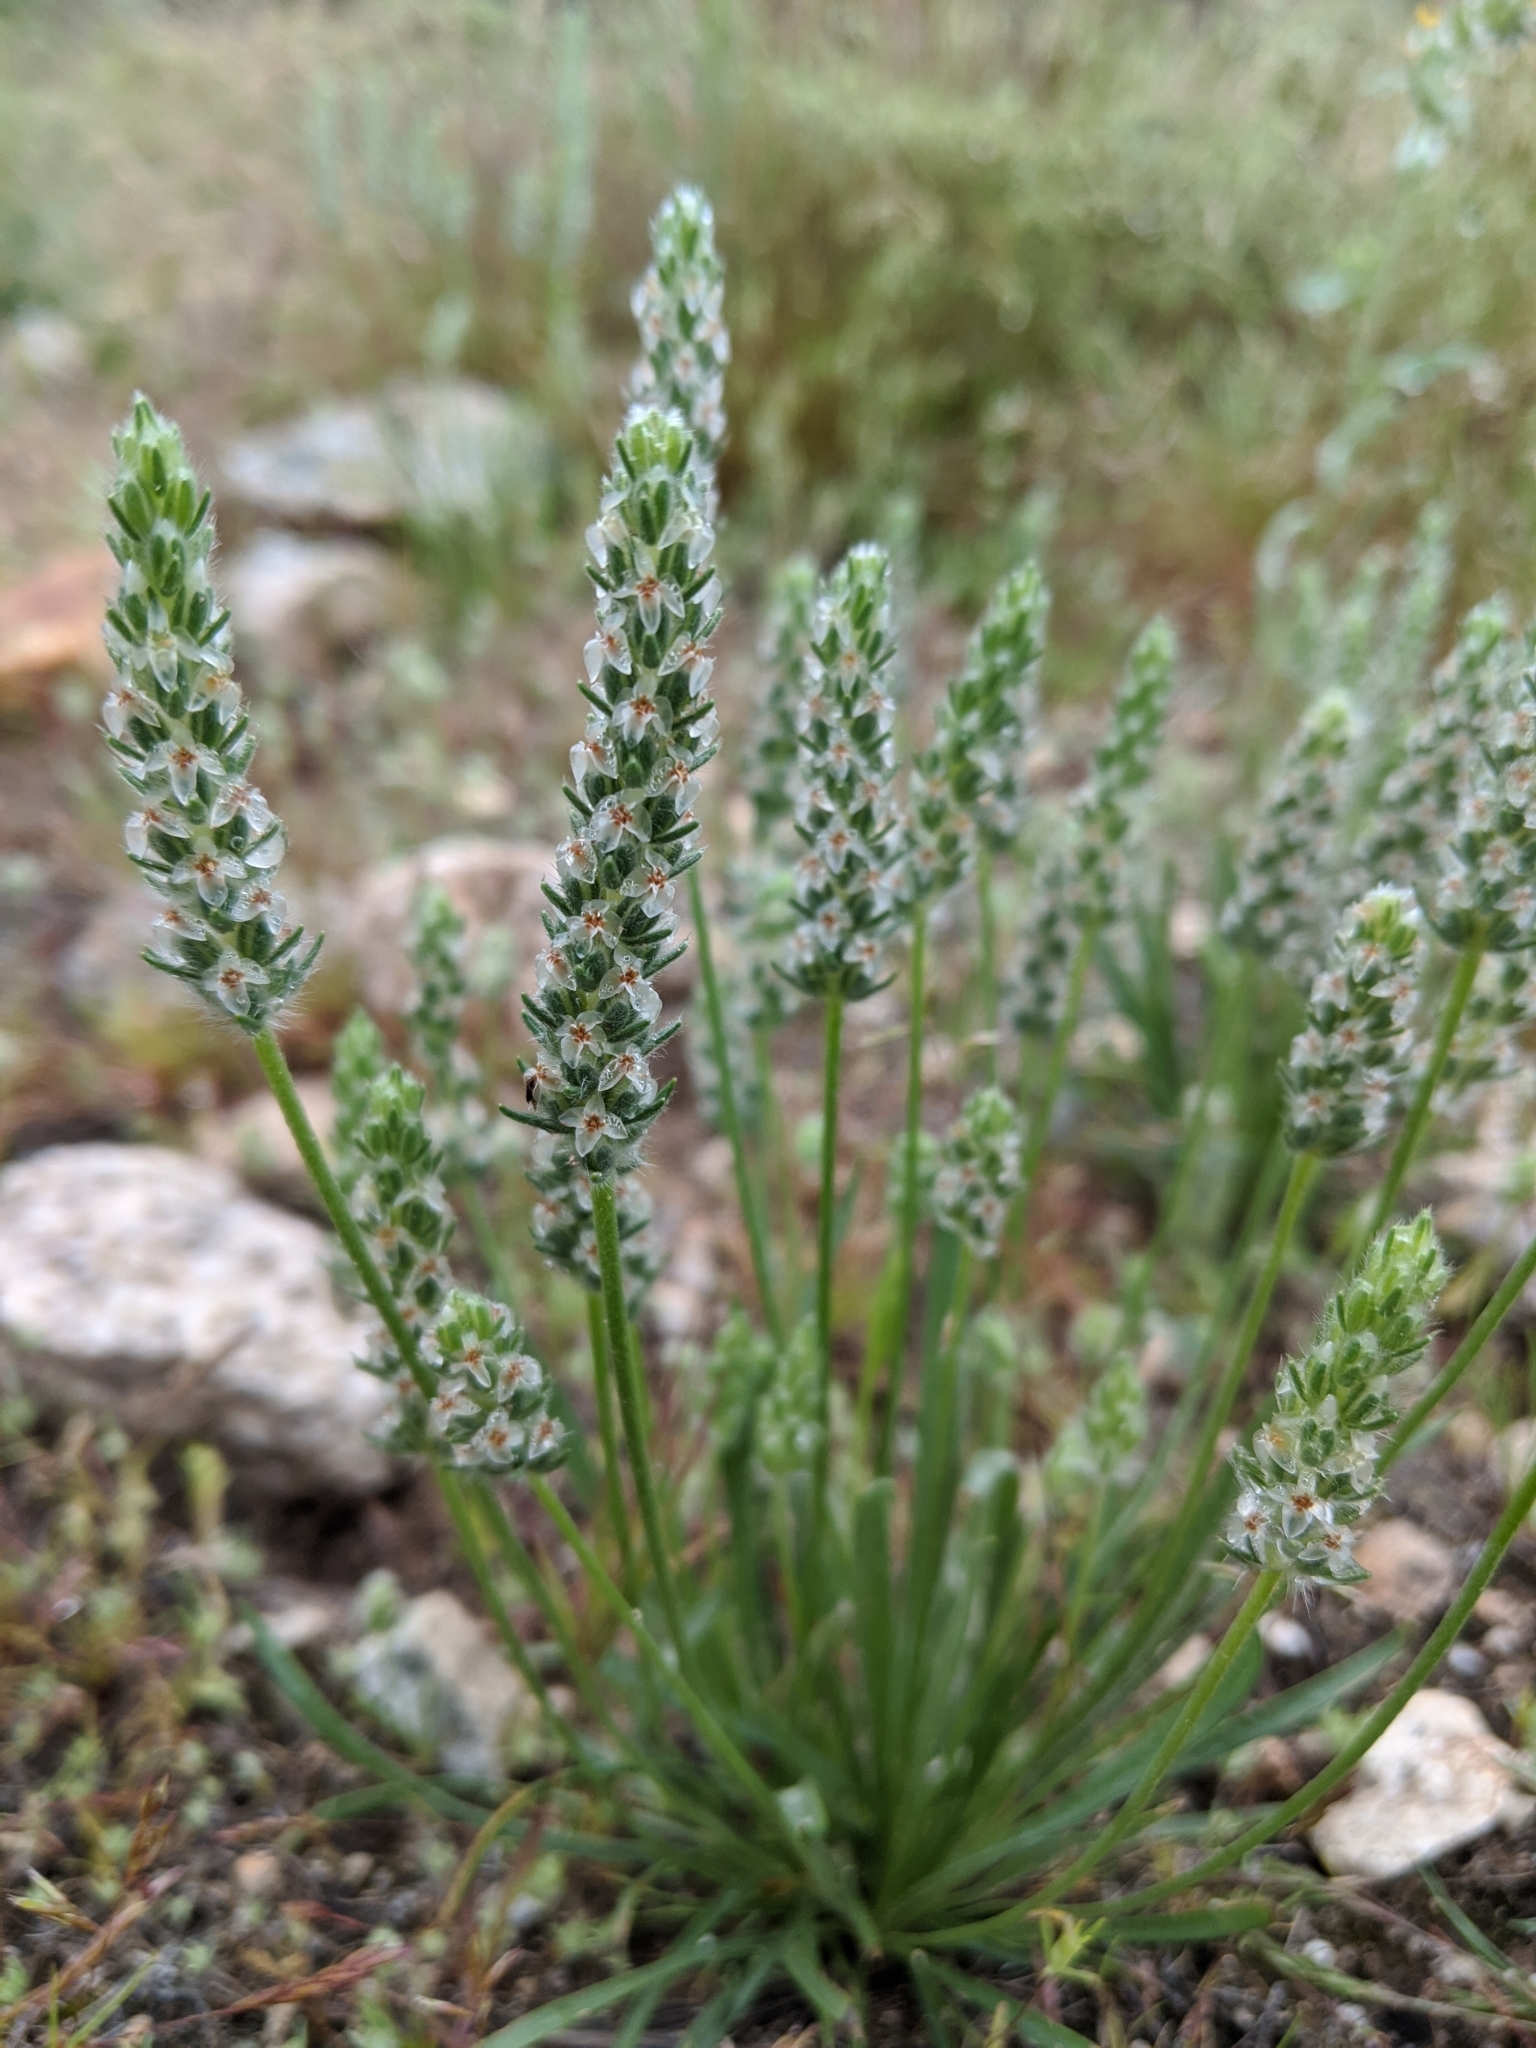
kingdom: Plantae
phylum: Tracheophyta
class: Magnoliopsida
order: Lamiales
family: Plantaginaceae
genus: Plantago
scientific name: Plantago patagonica
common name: Patagonia indian-wheat
